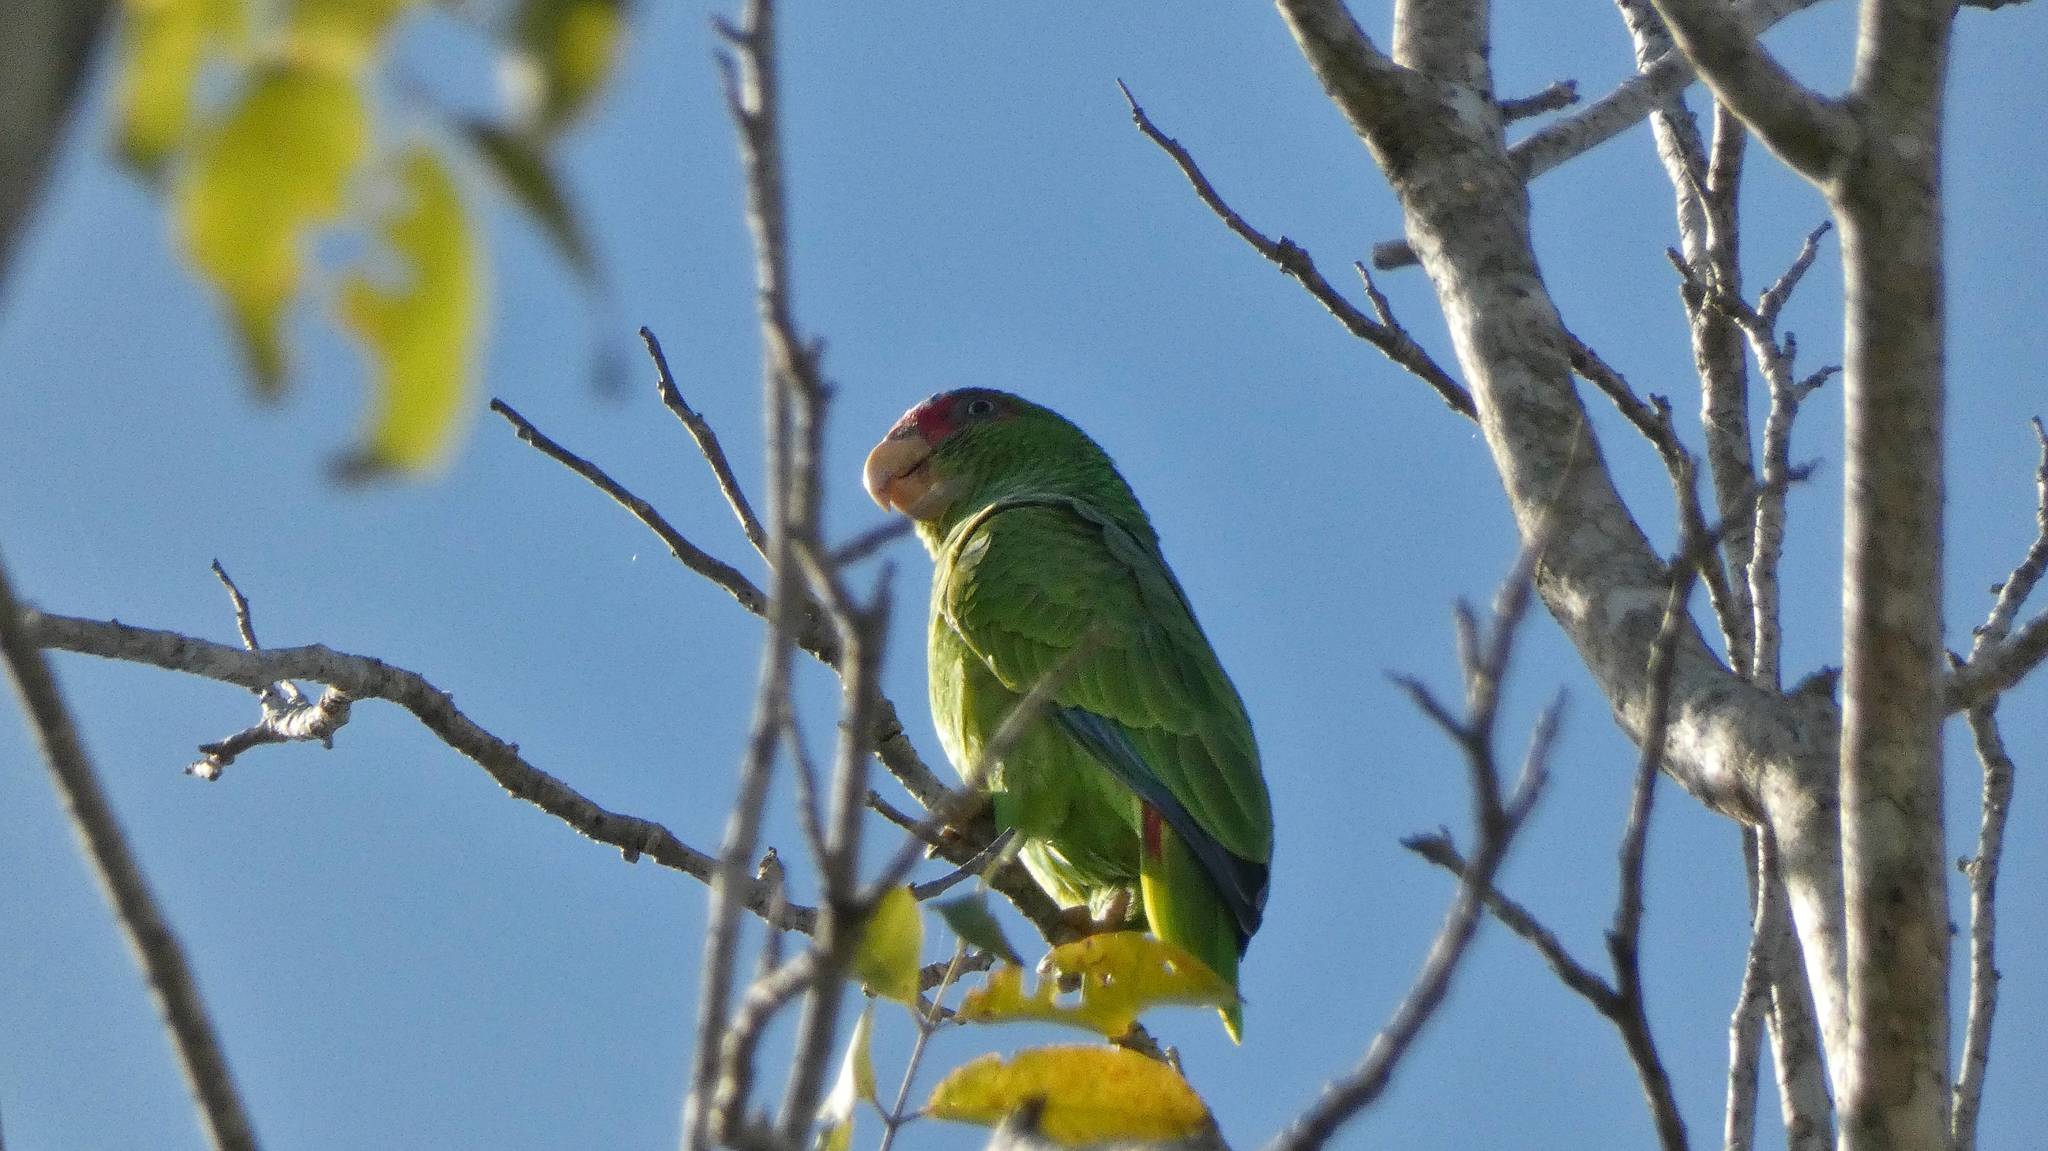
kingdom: Animalia
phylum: Chordata
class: Aves
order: Psittaciformes
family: Psittacidae
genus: Amazona
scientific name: Amazona albifrons
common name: White-fronted amazon
